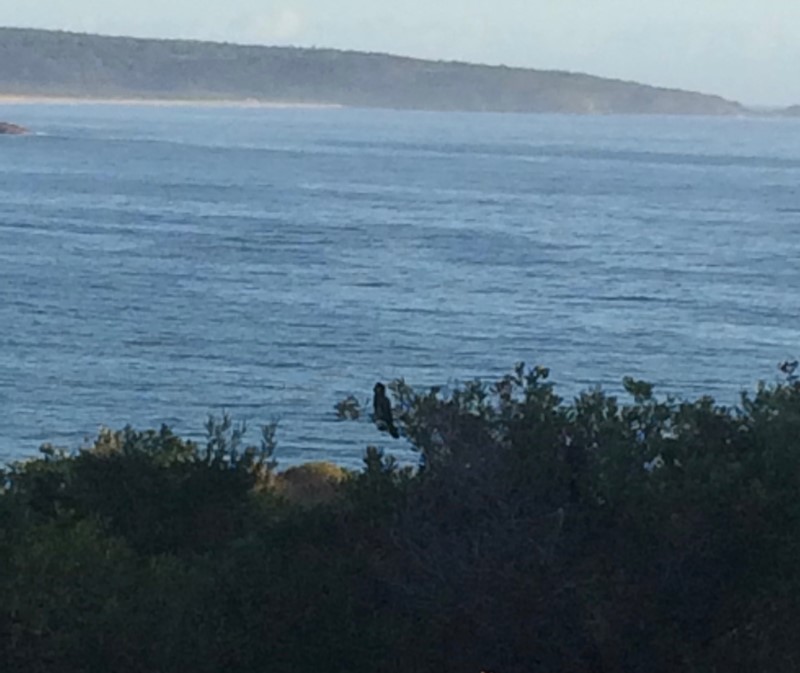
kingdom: Animalia
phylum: Chordata
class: Aves
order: Psittaciformes
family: Cacatuidae
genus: Zanda
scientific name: Zanda funerea
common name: Yellow-tailed black-cockatoo
